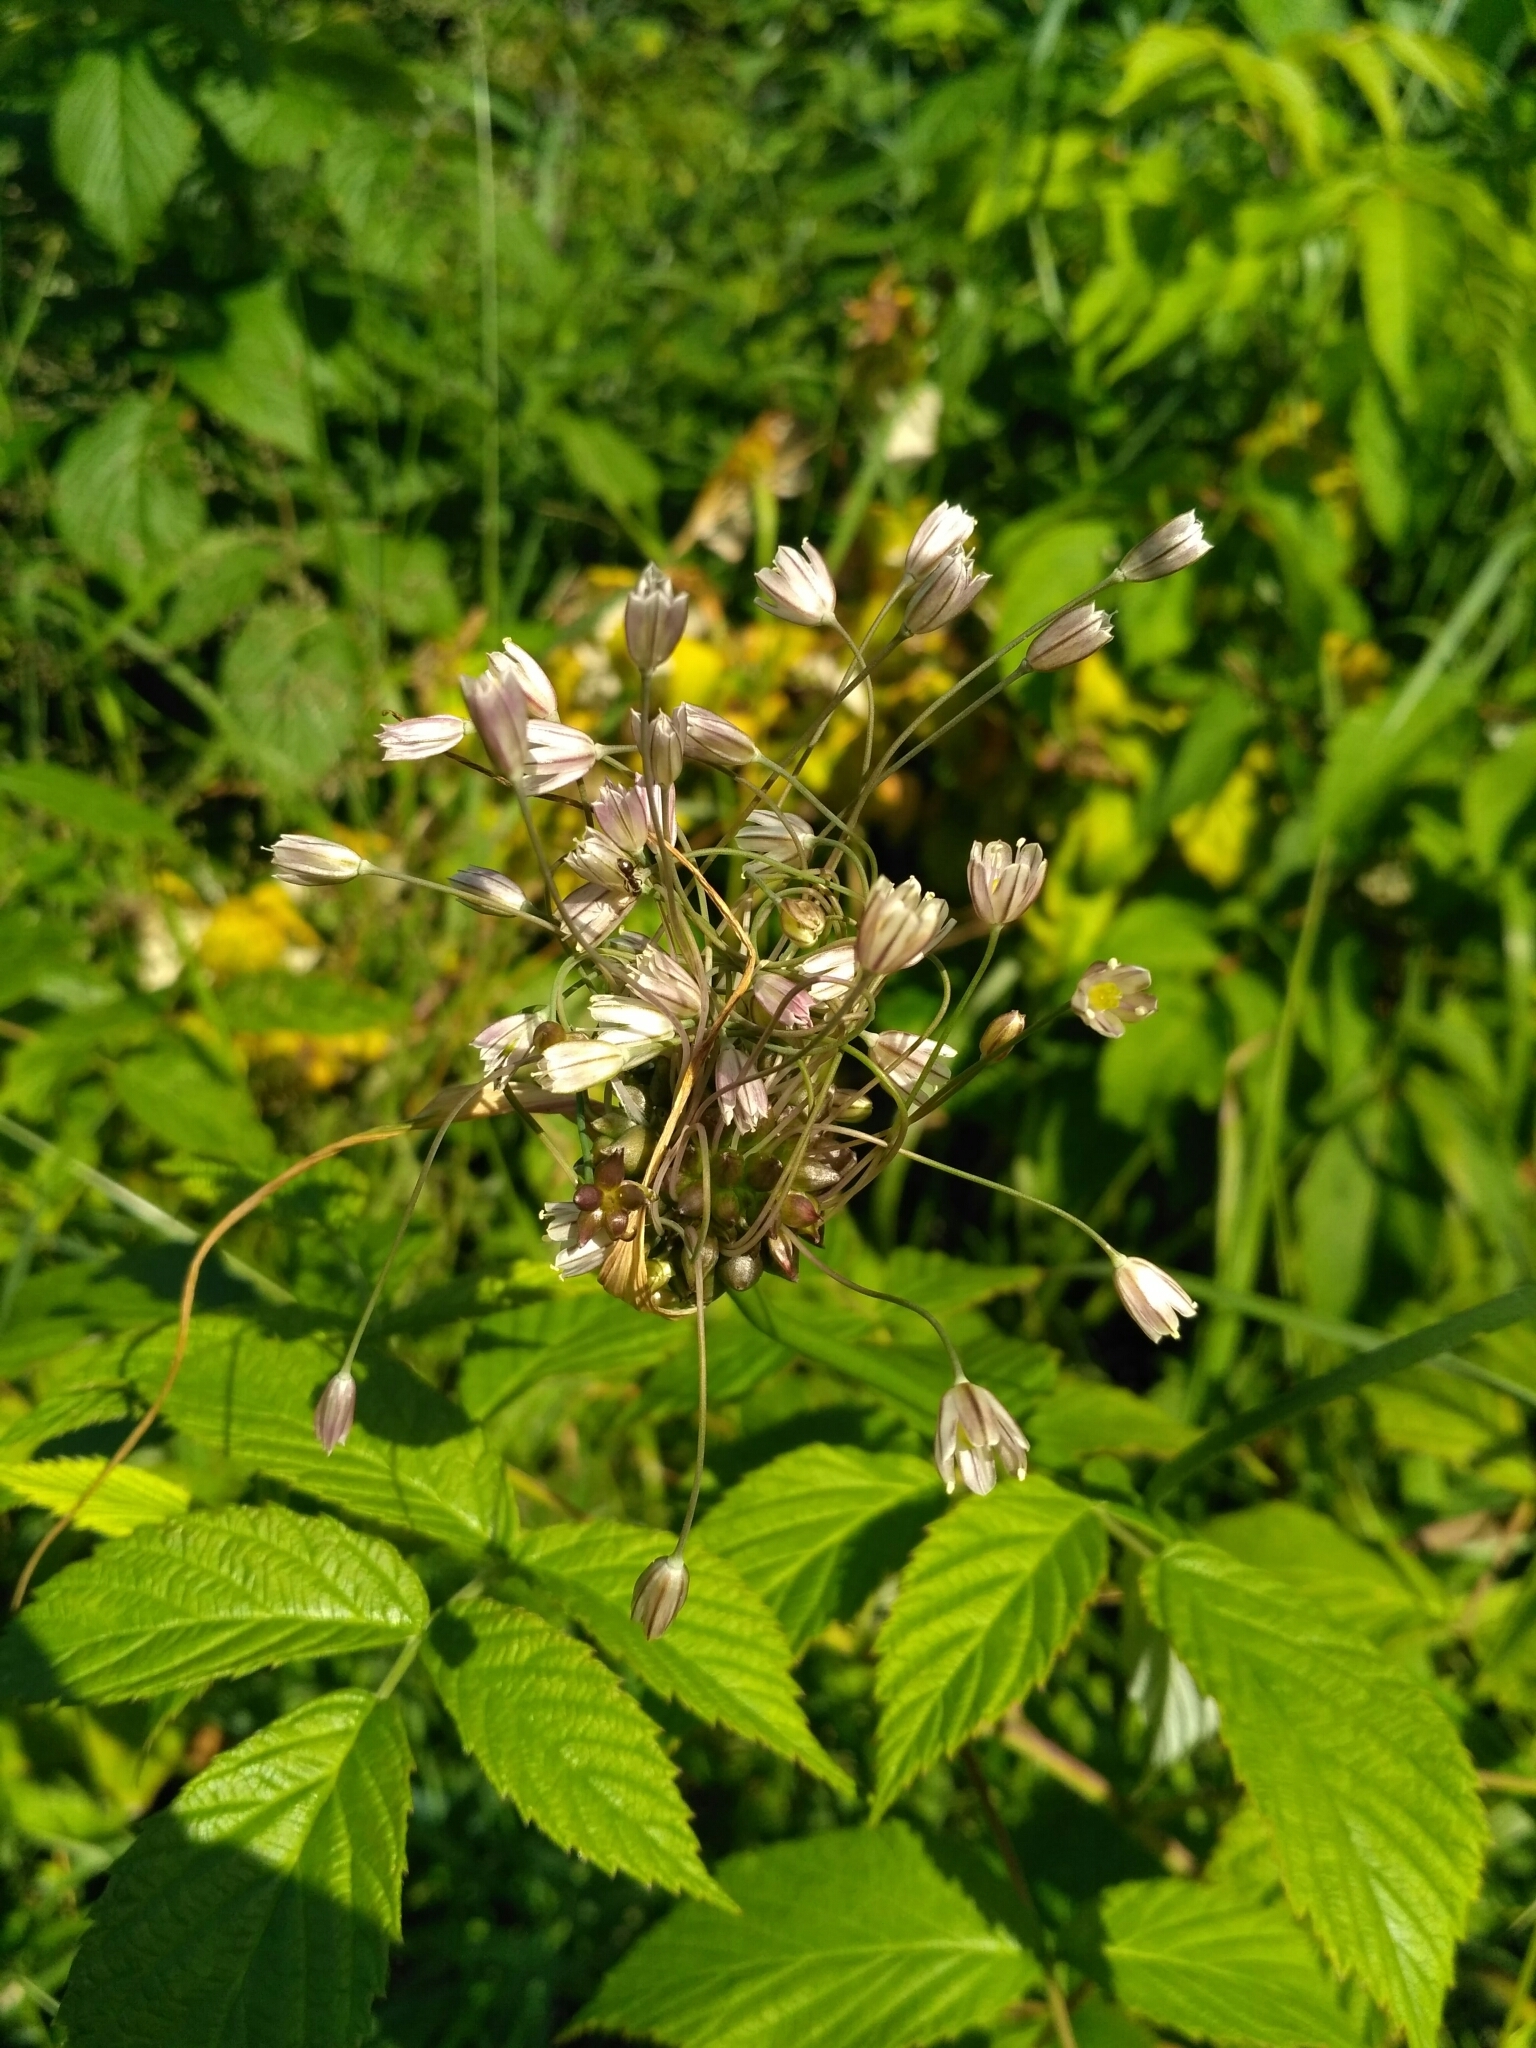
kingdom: Plantae
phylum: Tracheophyta
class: Liliopsida
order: Asparagales
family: Amaryllidaceae
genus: Allium
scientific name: Allium oleraceum
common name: Field garlic
